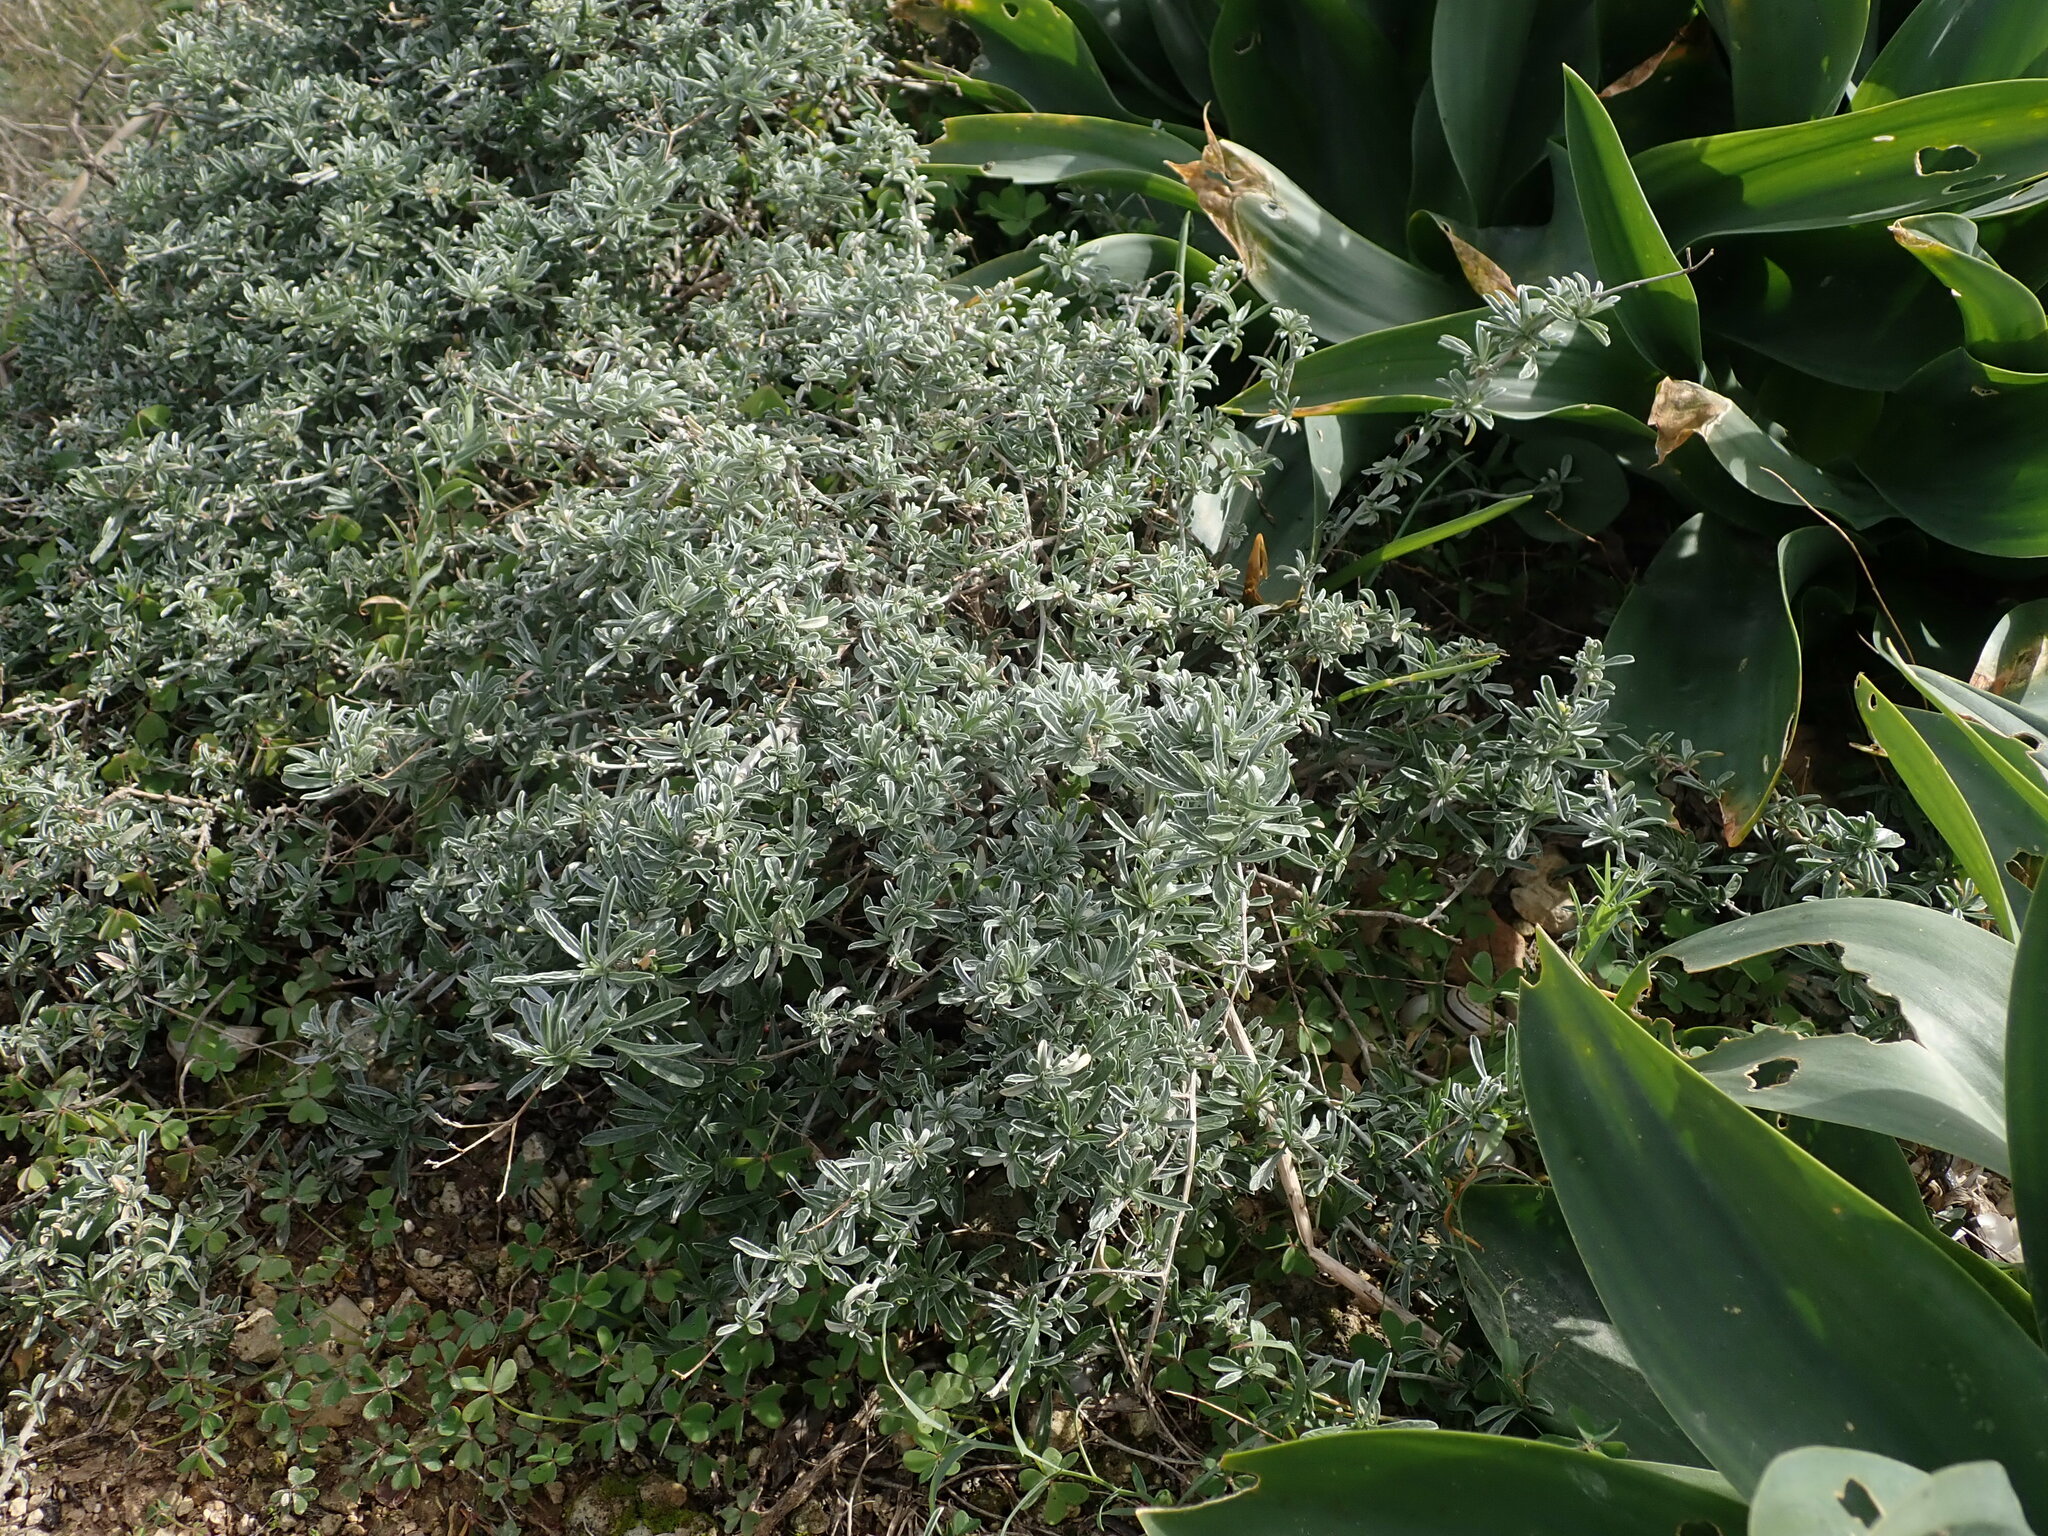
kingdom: Plantae
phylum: Tracheophyta
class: Magnoliopsida
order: Solanales
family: Convolvulaceae
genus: Convolvulus
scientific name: Convolvulus oleifolius
